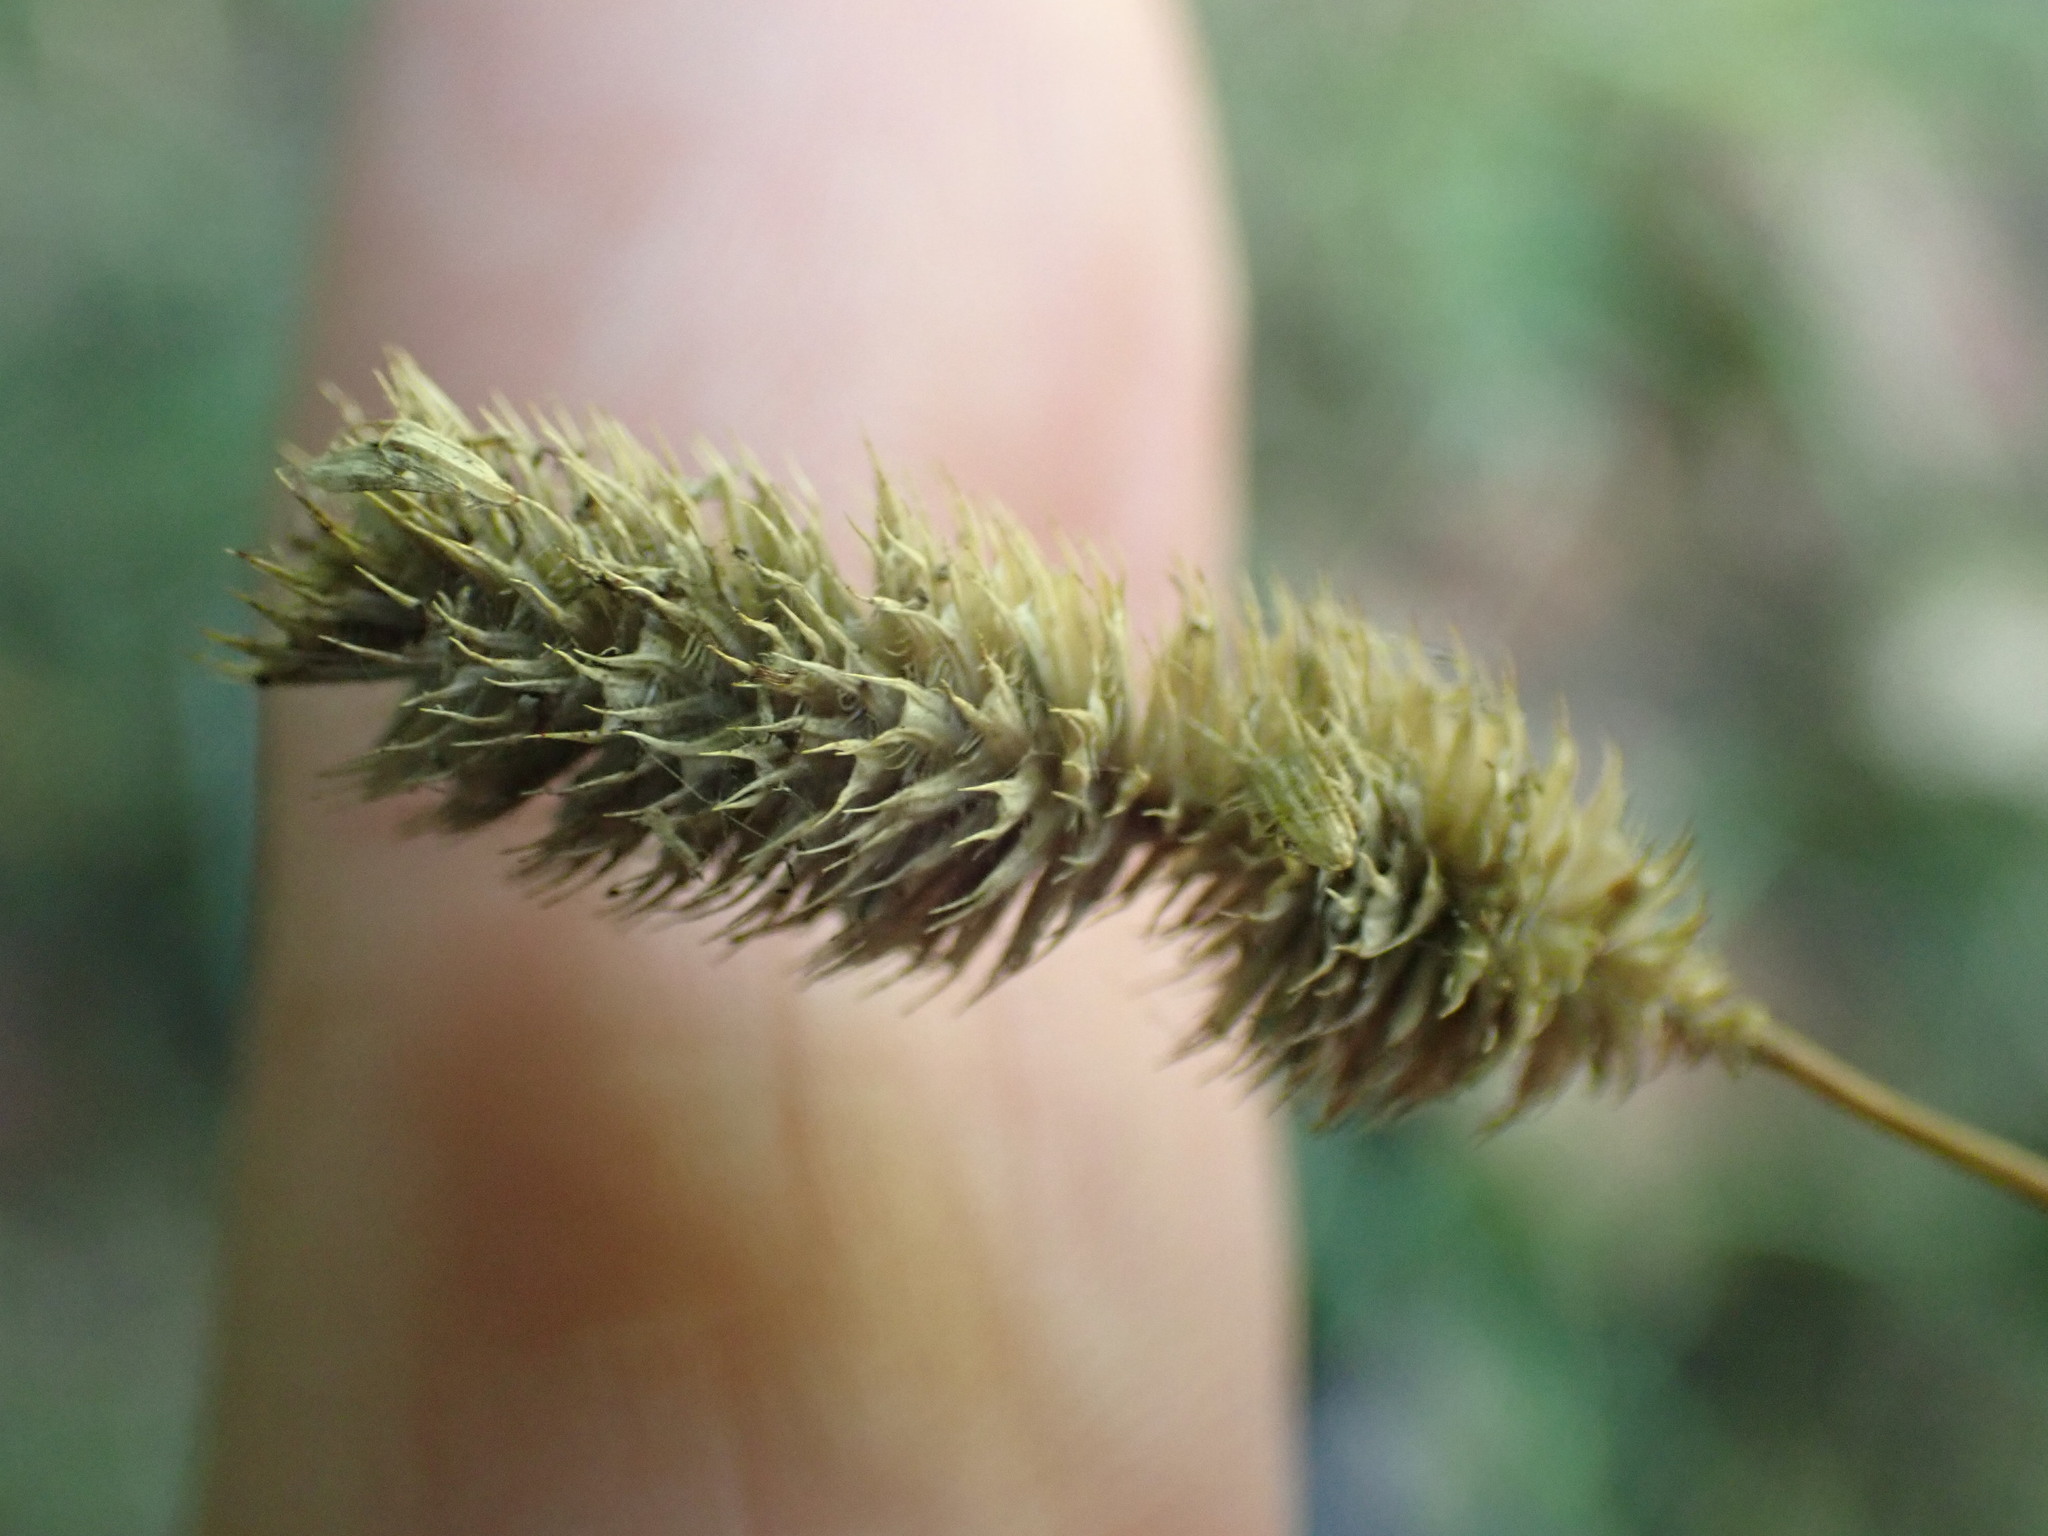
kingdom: Plantae
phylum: Tracheophyta
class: Liliopsida
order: Poales
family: Poaceae
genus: Phleum
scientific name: Phleum bertolonii
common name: Smaller cat's-tail
